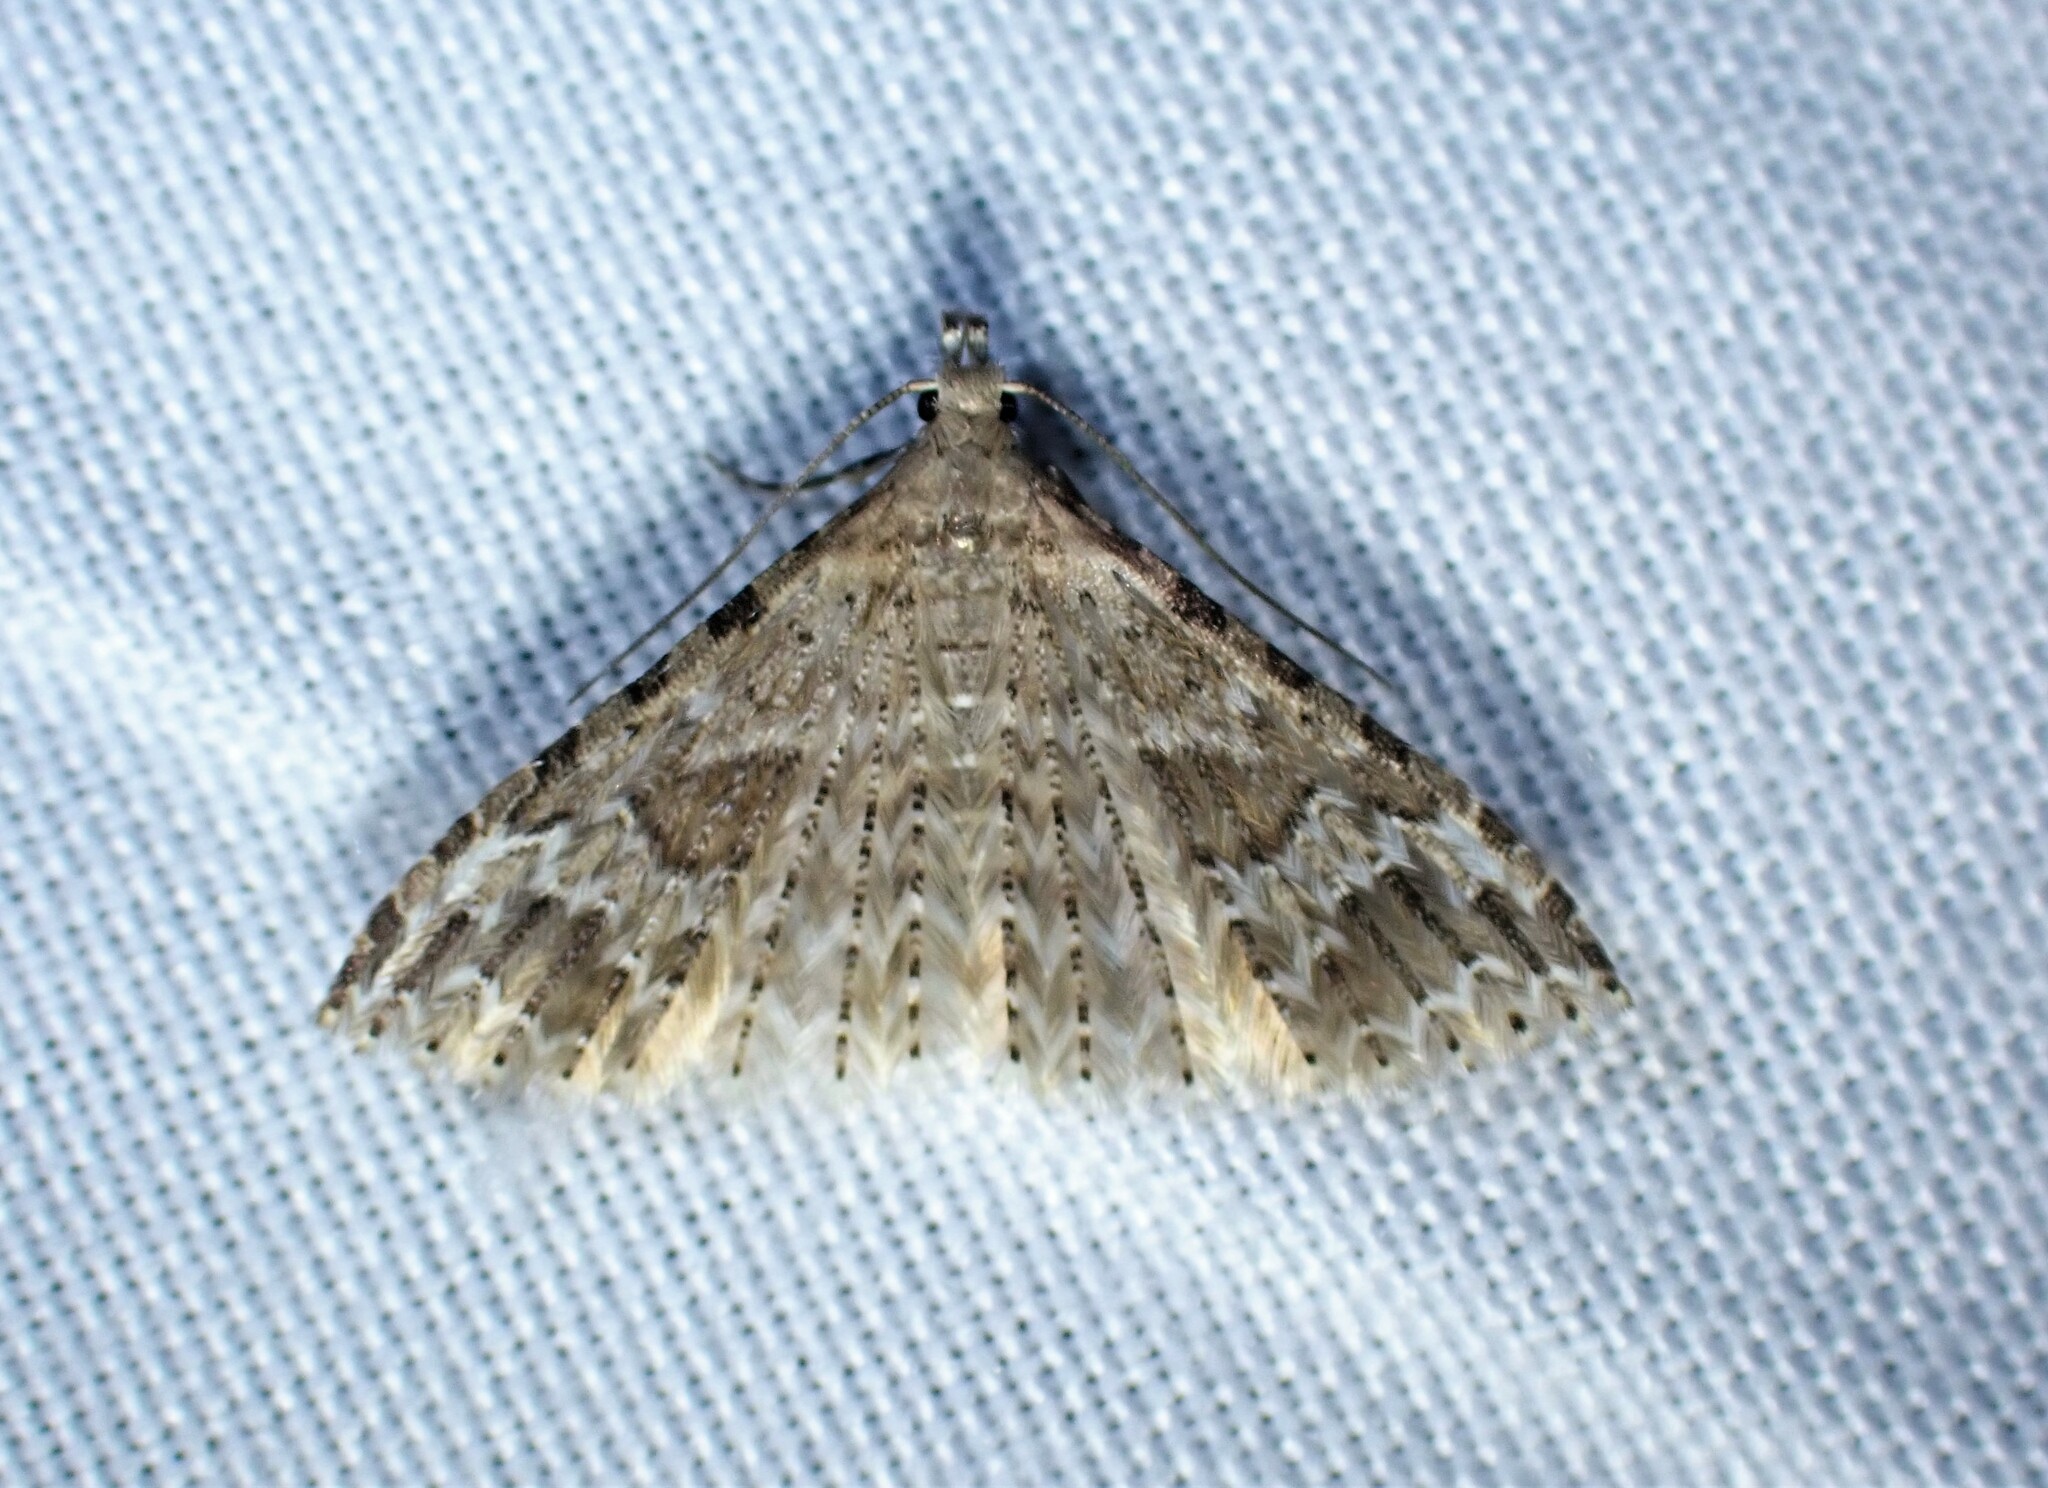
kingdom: Animalia
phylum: Arthropoda
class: Insecta
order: Lepidoptera
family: Alucitidae
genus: Alucita
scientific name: Alucita adriendenisi
